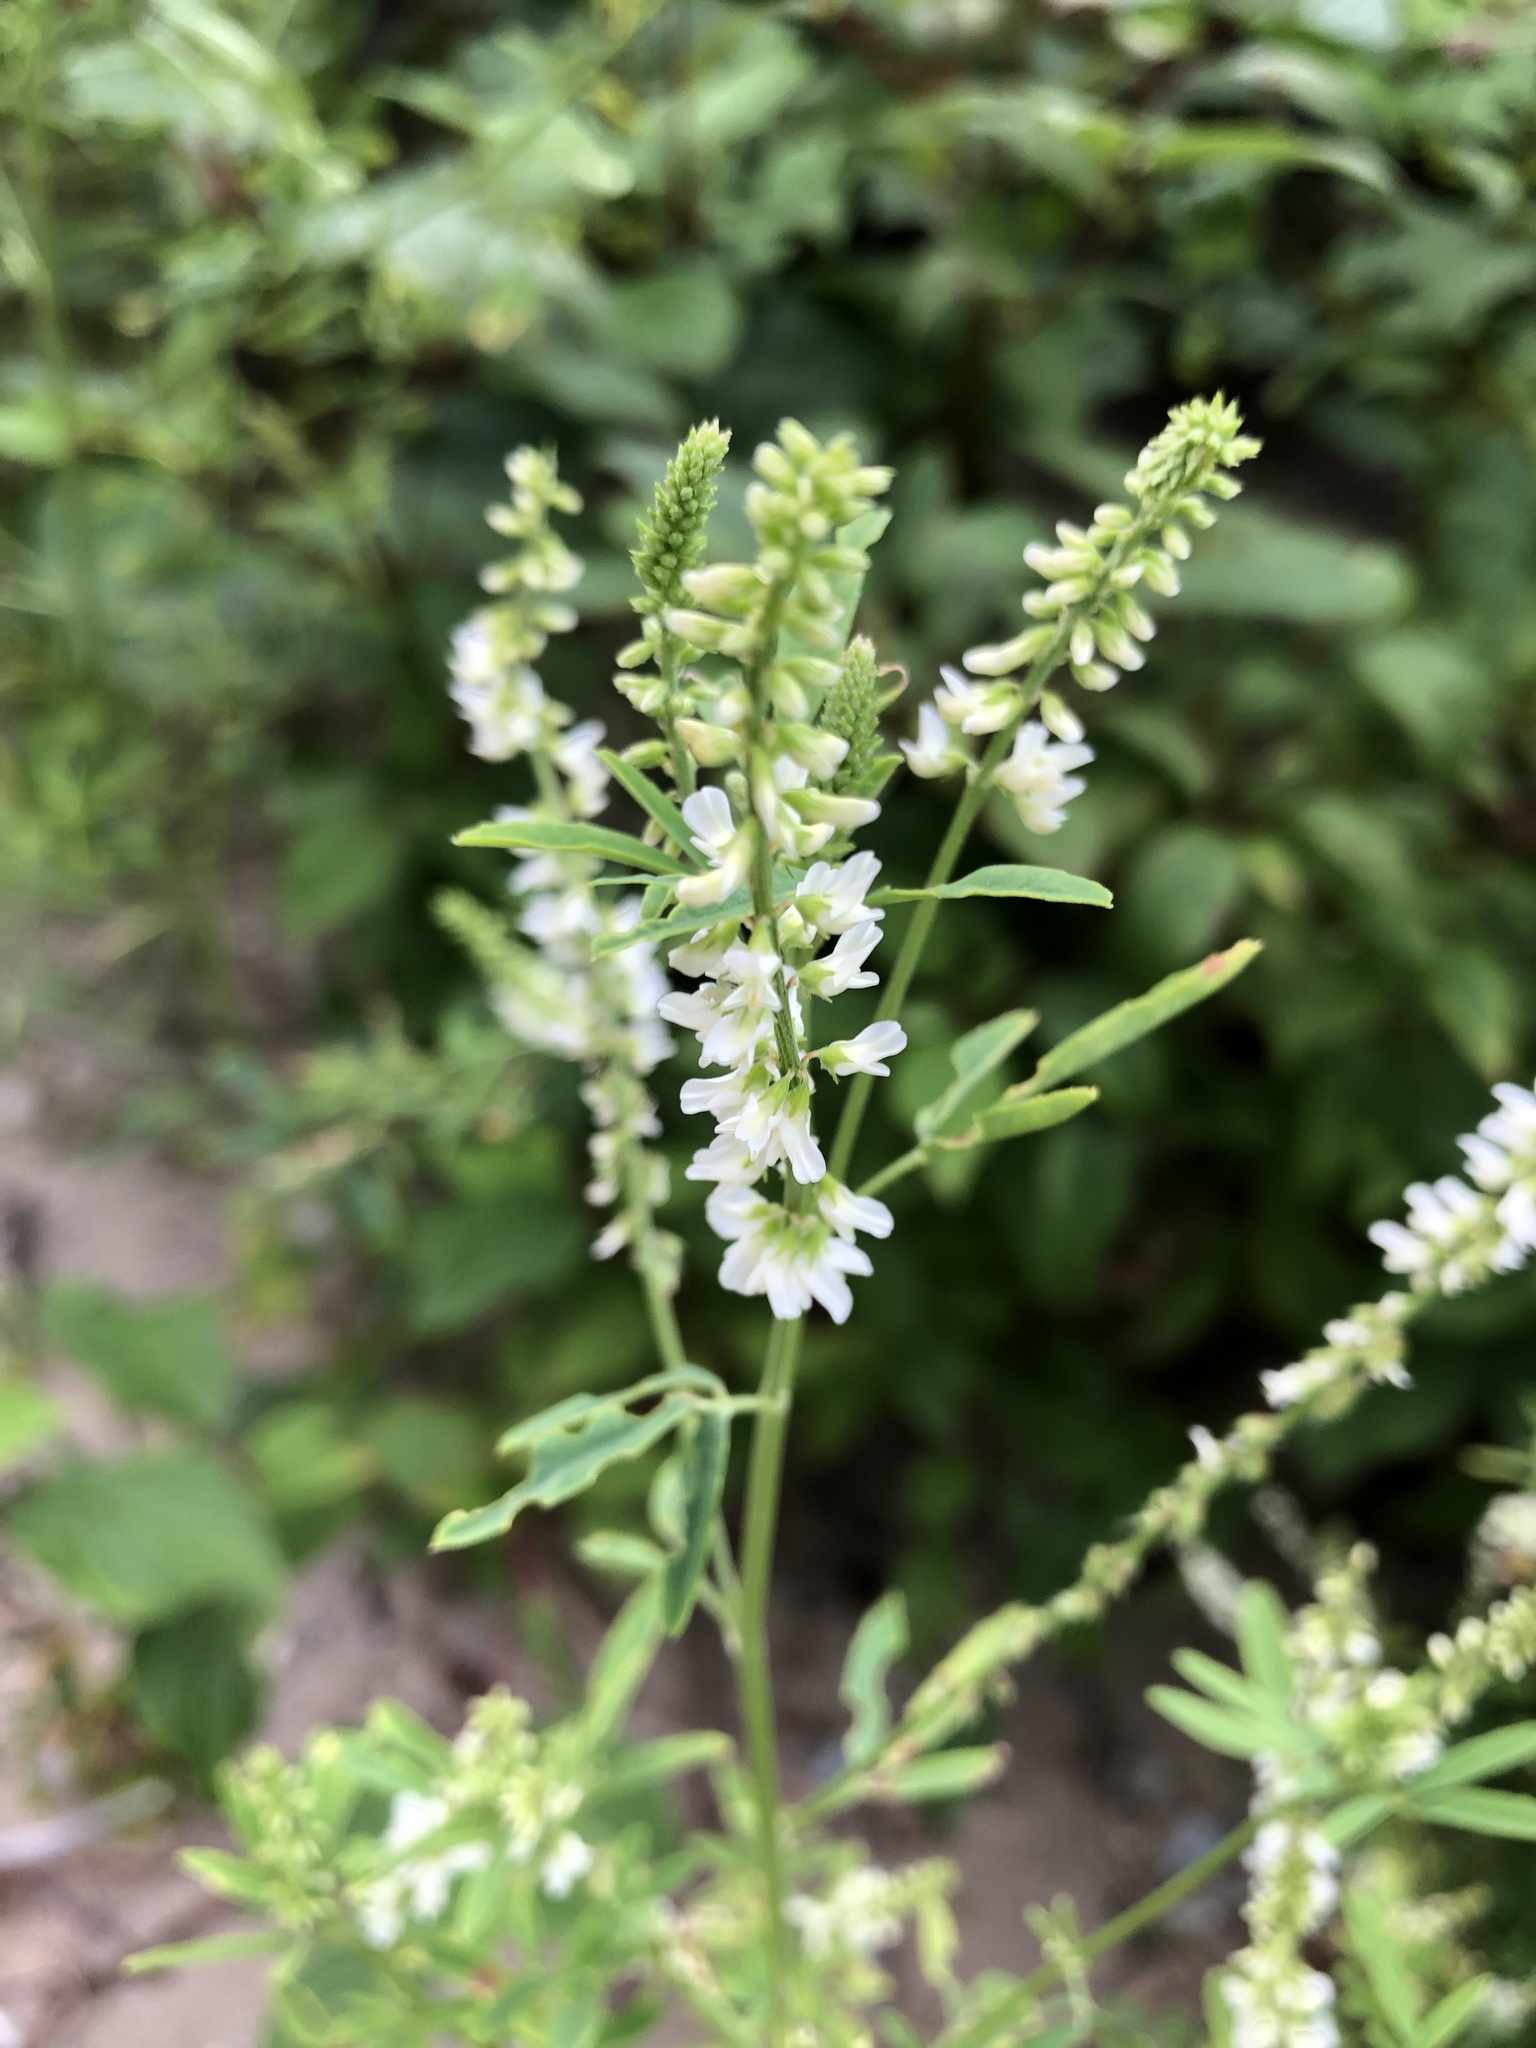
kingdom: Plantae
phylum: Tracheophyta
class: Magnoliopsida
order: Fabales
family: Fabaceae
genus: Melilotus
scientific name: Melilotus albus
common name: White melilot
